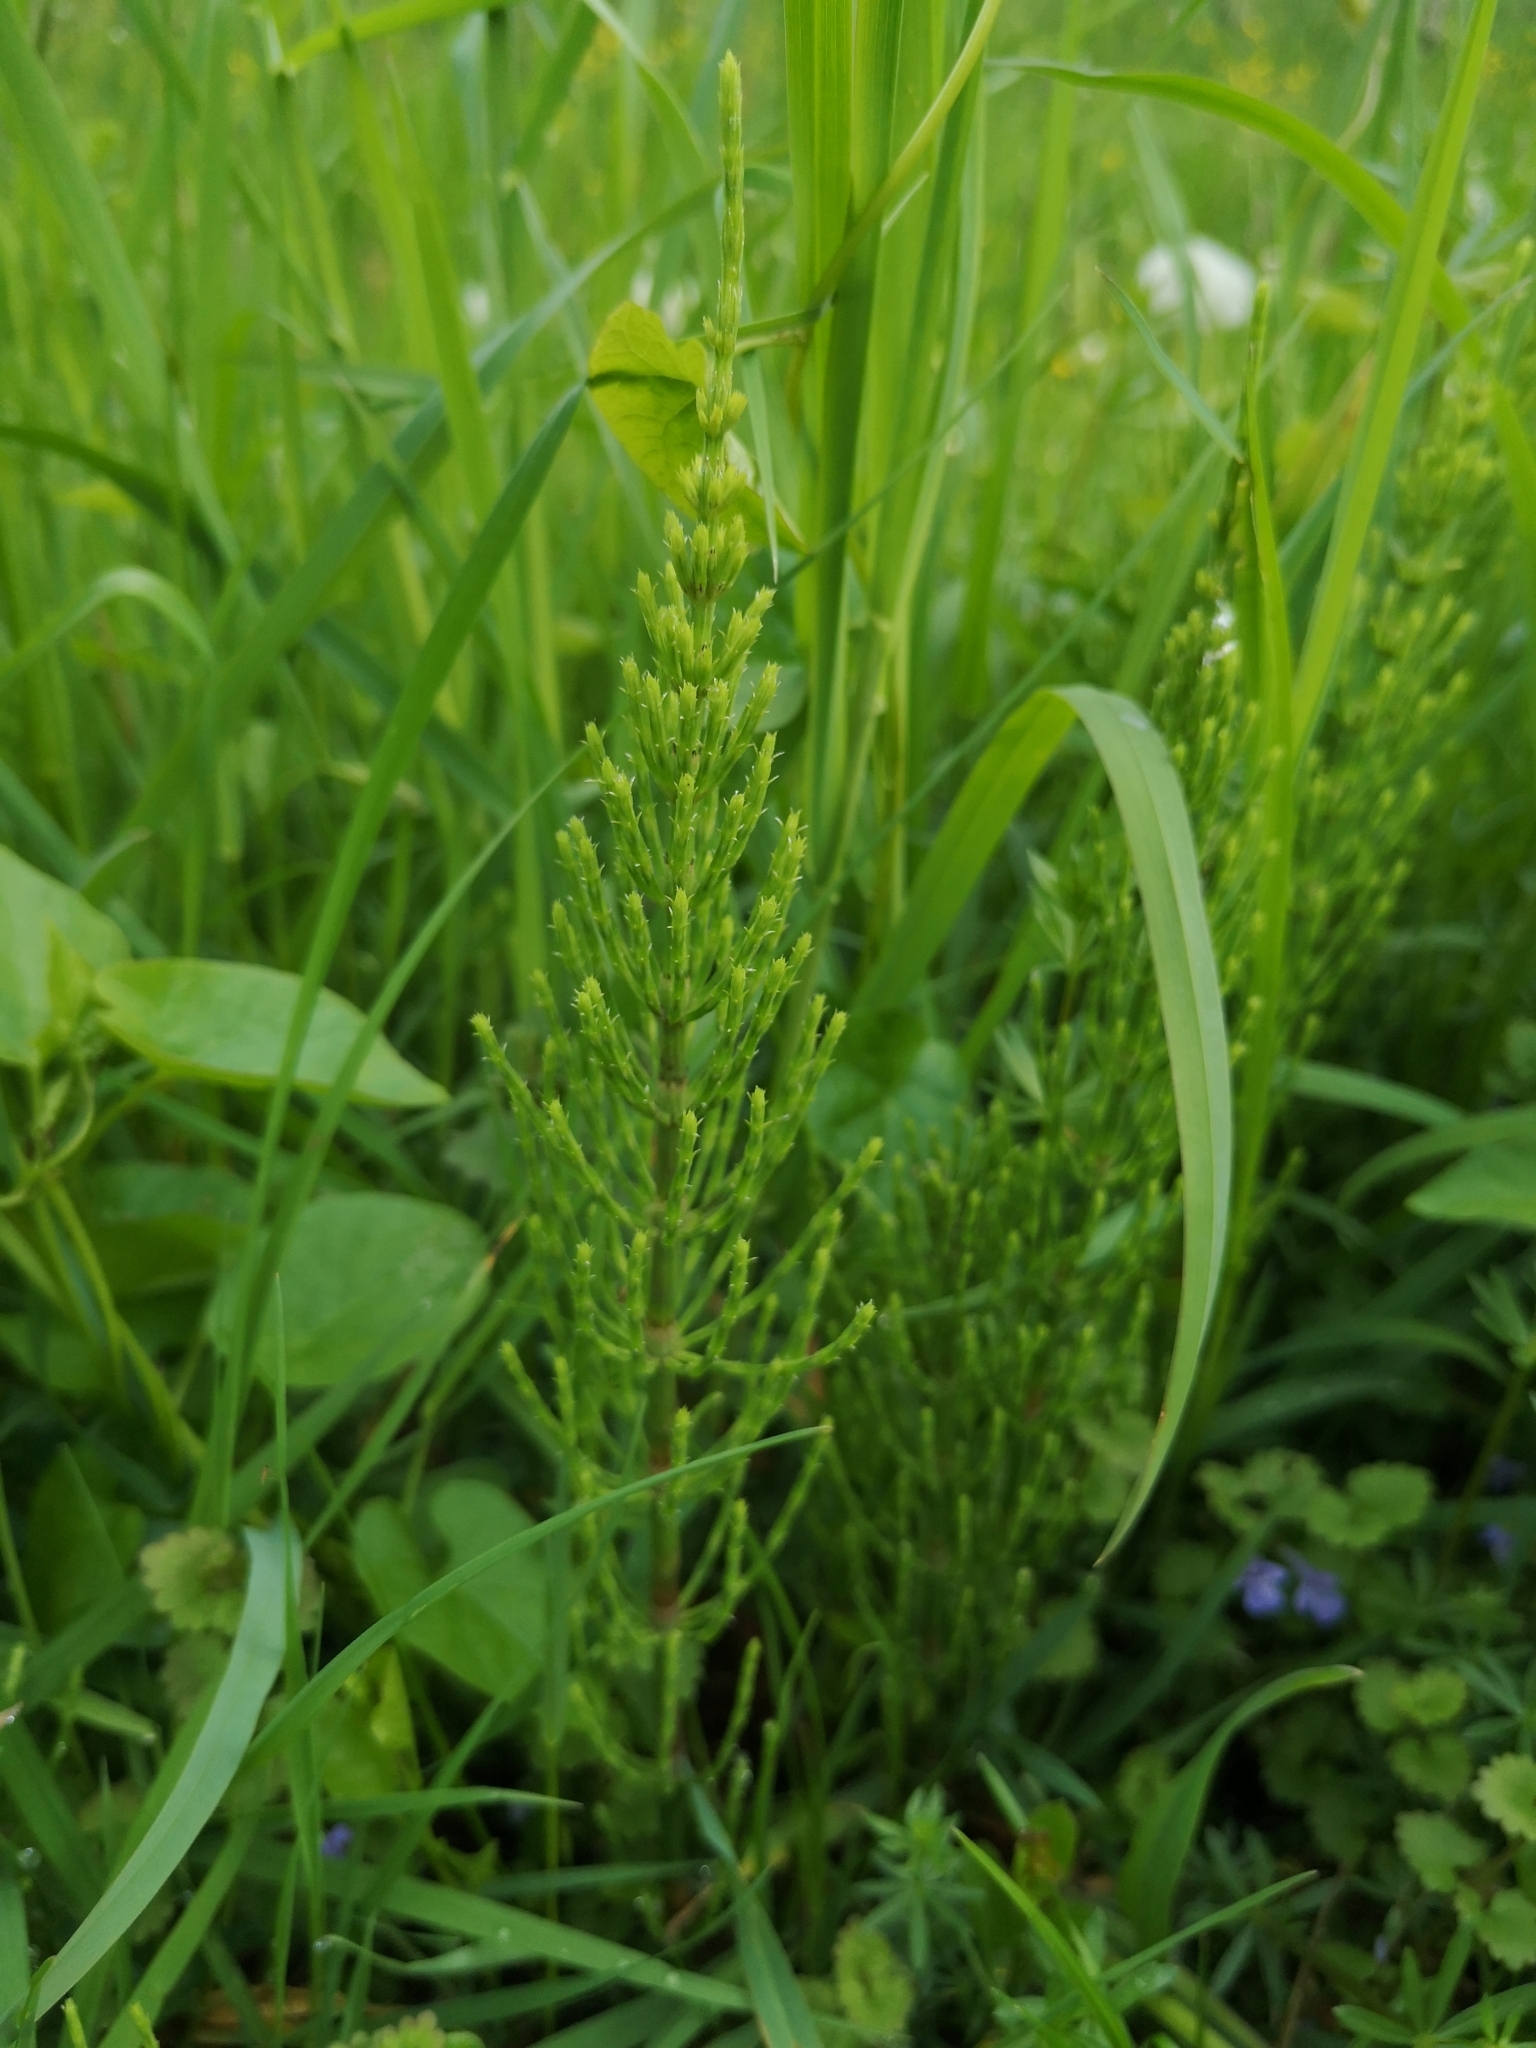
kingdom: Plantae
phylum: Tracheophyta
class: Polypodiopsida
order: Equisetales
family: Equisetaceae
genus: Equisetum
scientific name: Equisetum arvense
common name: Field horsetail
